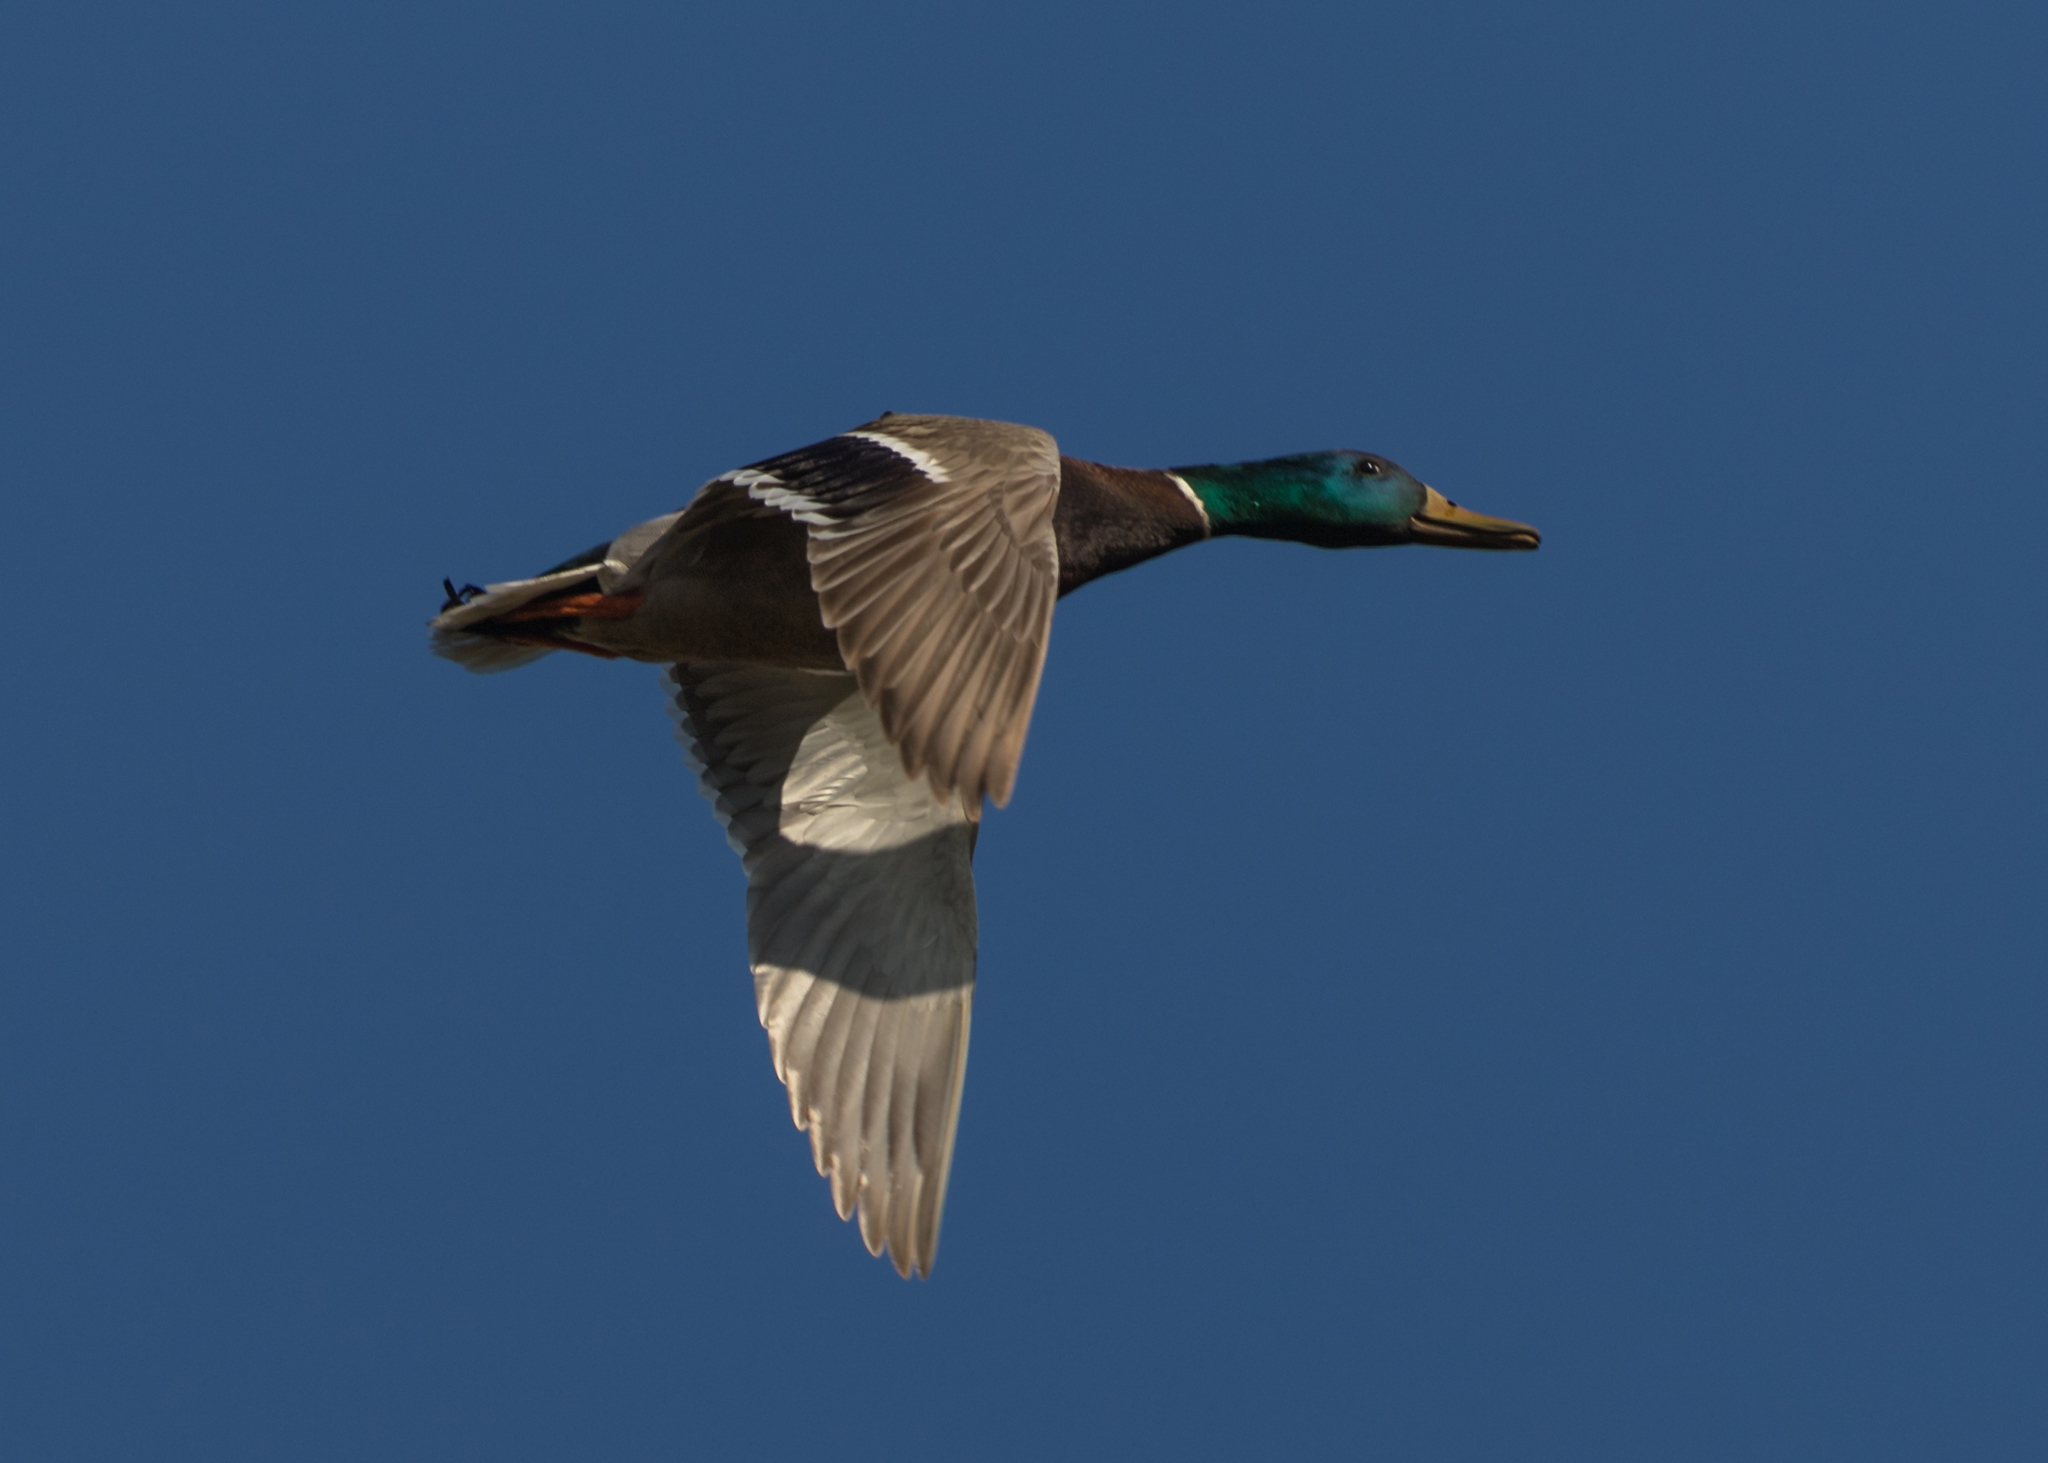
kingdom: Animalia
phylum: Chordata
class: Aves
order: Anseriformes
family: Anatidae
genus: Anas
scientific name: Anas platyrhynchos
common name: Mallard
